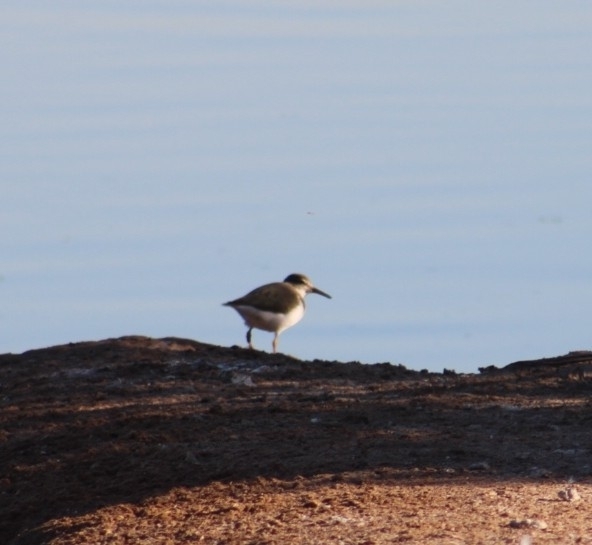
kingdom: Animalia
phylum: Chordata
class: Aves
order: Charadriiformes
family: Scolopacidae
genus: Calidris
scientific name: Calidris minutilla
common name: Least sandpiper
